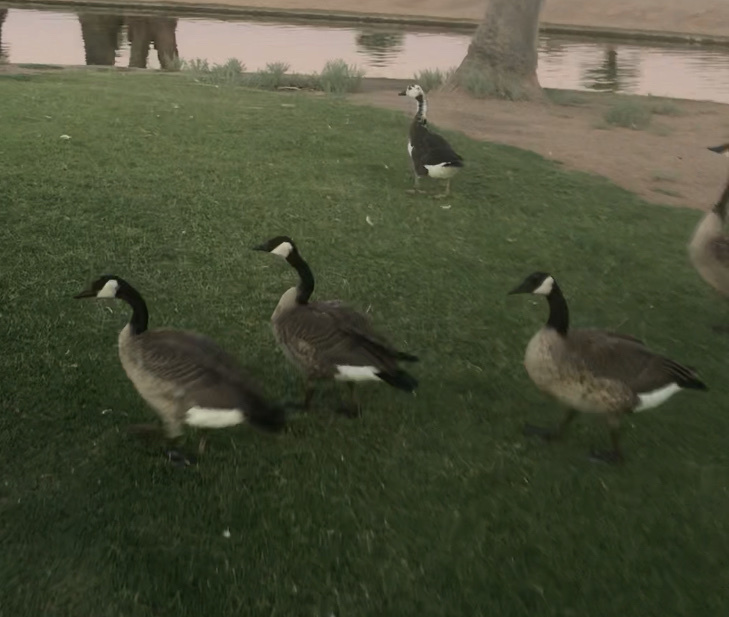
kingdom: Animalia
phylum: Chordata
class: Aves
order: Anseriformes
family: Anatidae
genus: Branta
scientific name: Branta canadensis
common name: Canada goose
